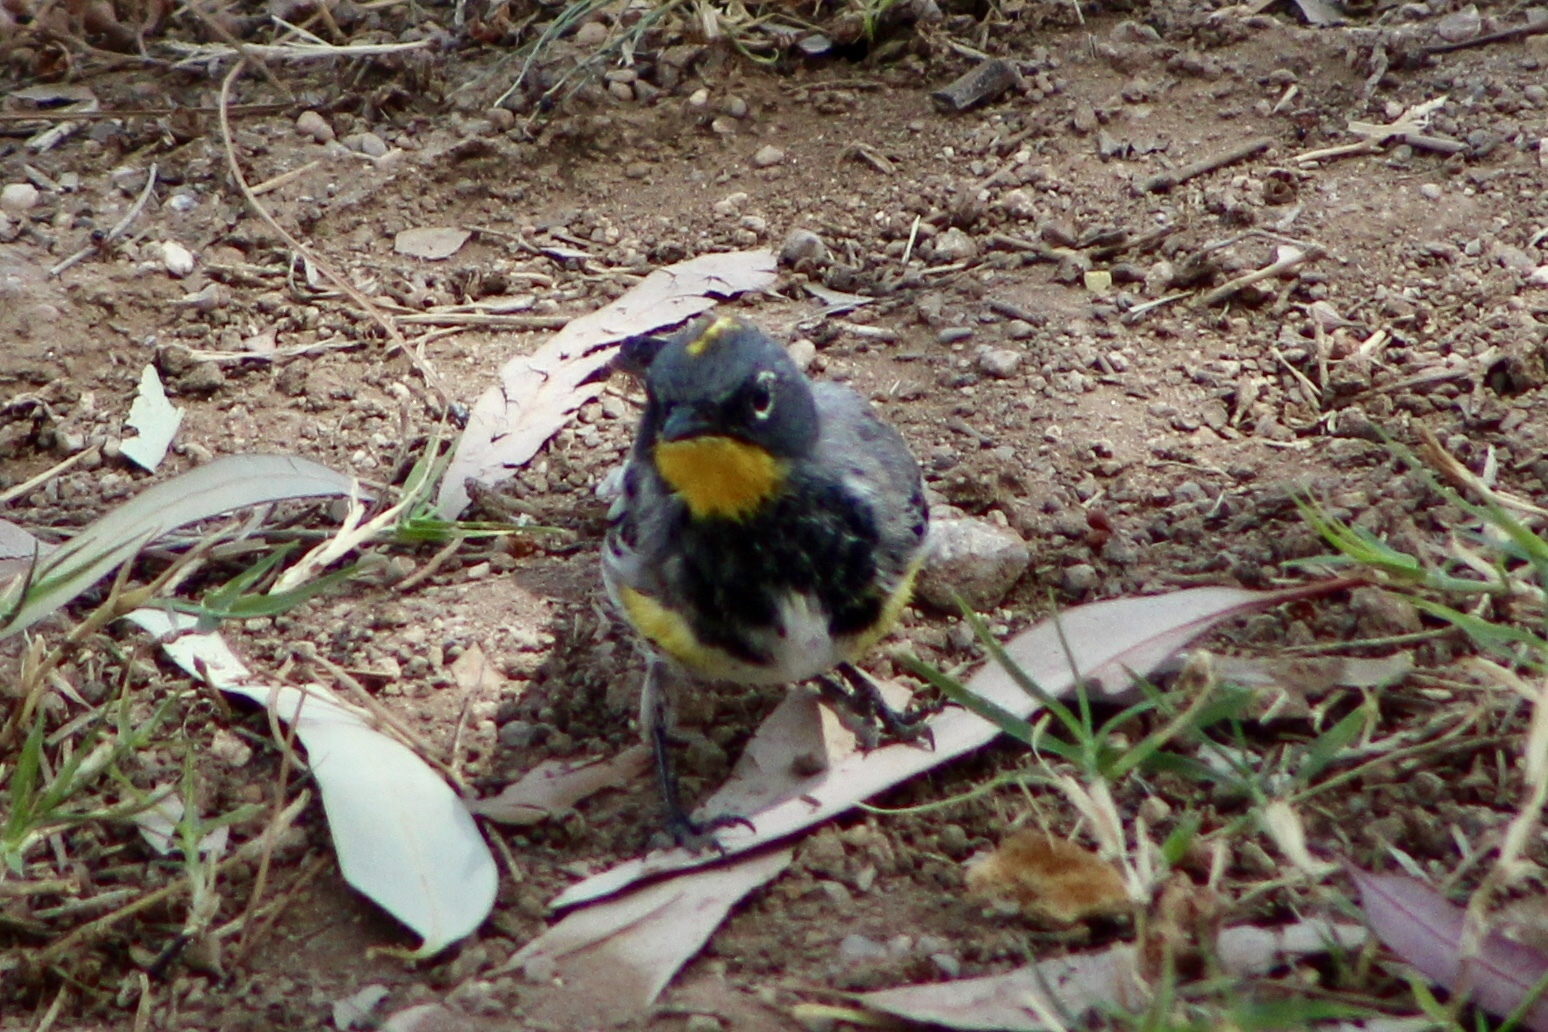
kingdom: Animalia
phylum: Chordata
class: Aves
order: Passeriformes
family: Parulidae
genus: Setophaga
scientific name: Setophaga auduboni
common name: Audubon's warbler
